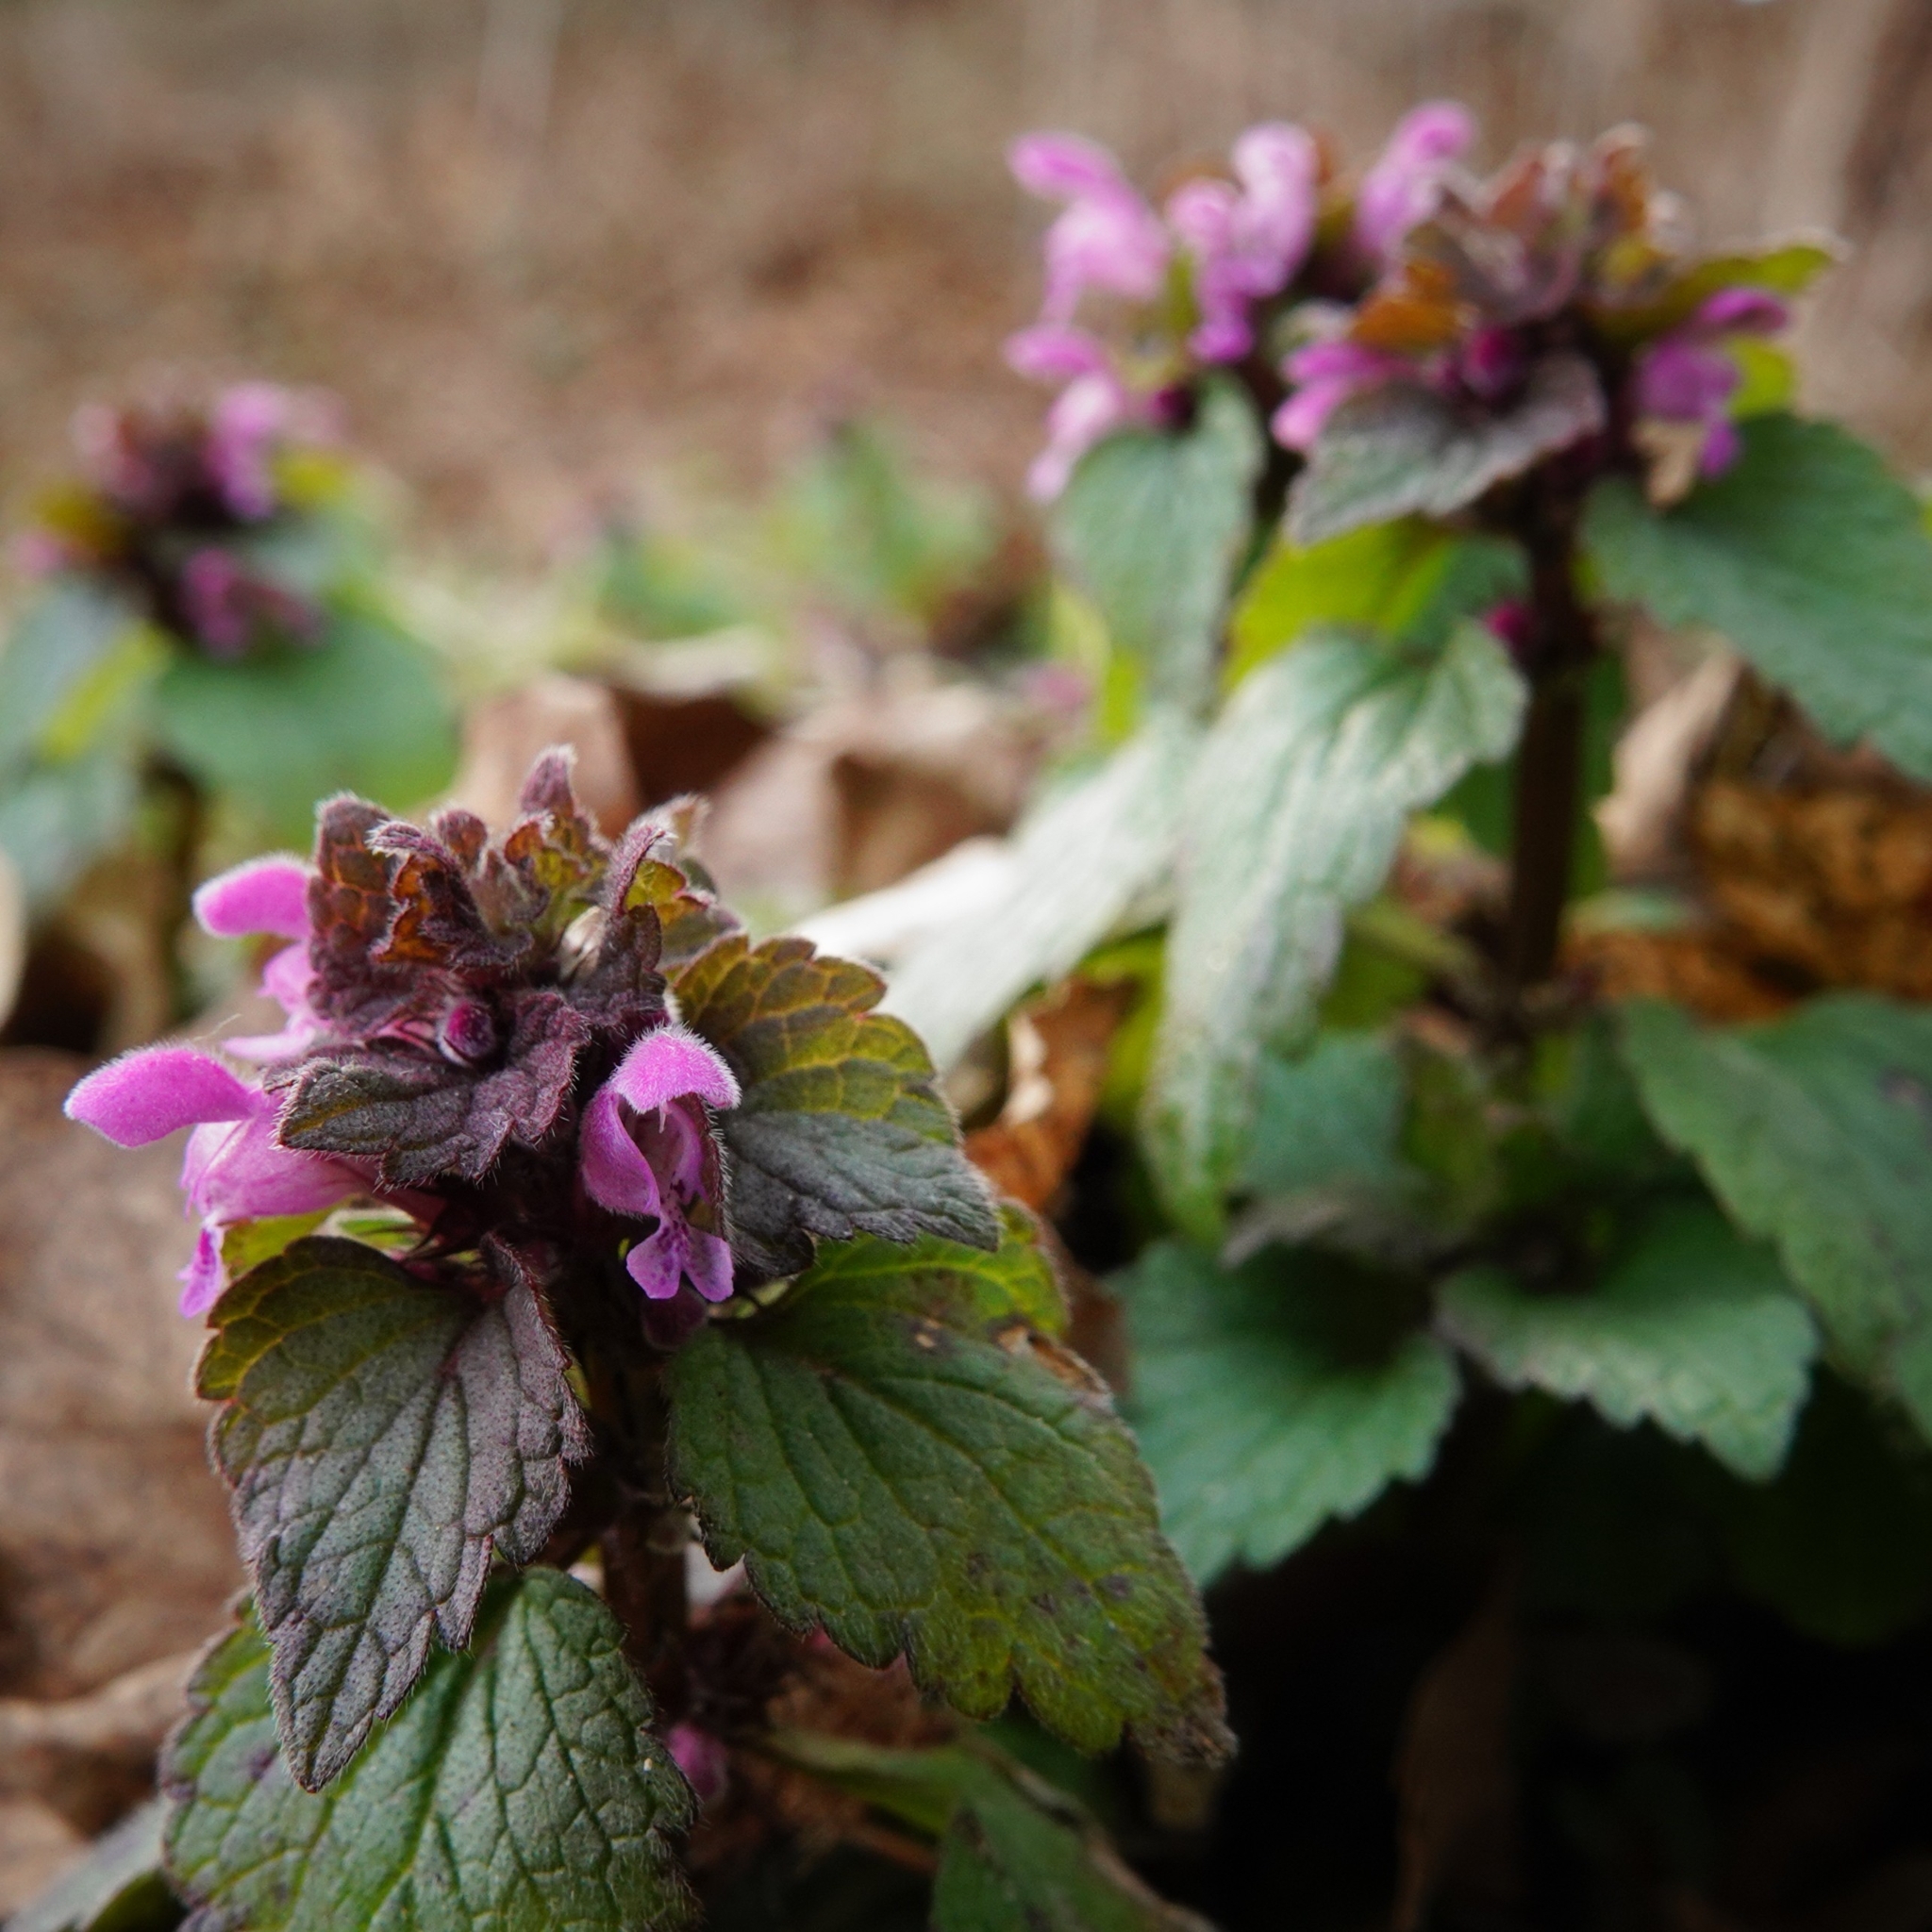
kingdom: Plantae
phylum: Tracheophyta
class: Magnoliopsida
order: Lamiales
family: Lamiaceae
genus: Lamium
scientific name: Lamium purpureum
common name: Red dead-nettle
